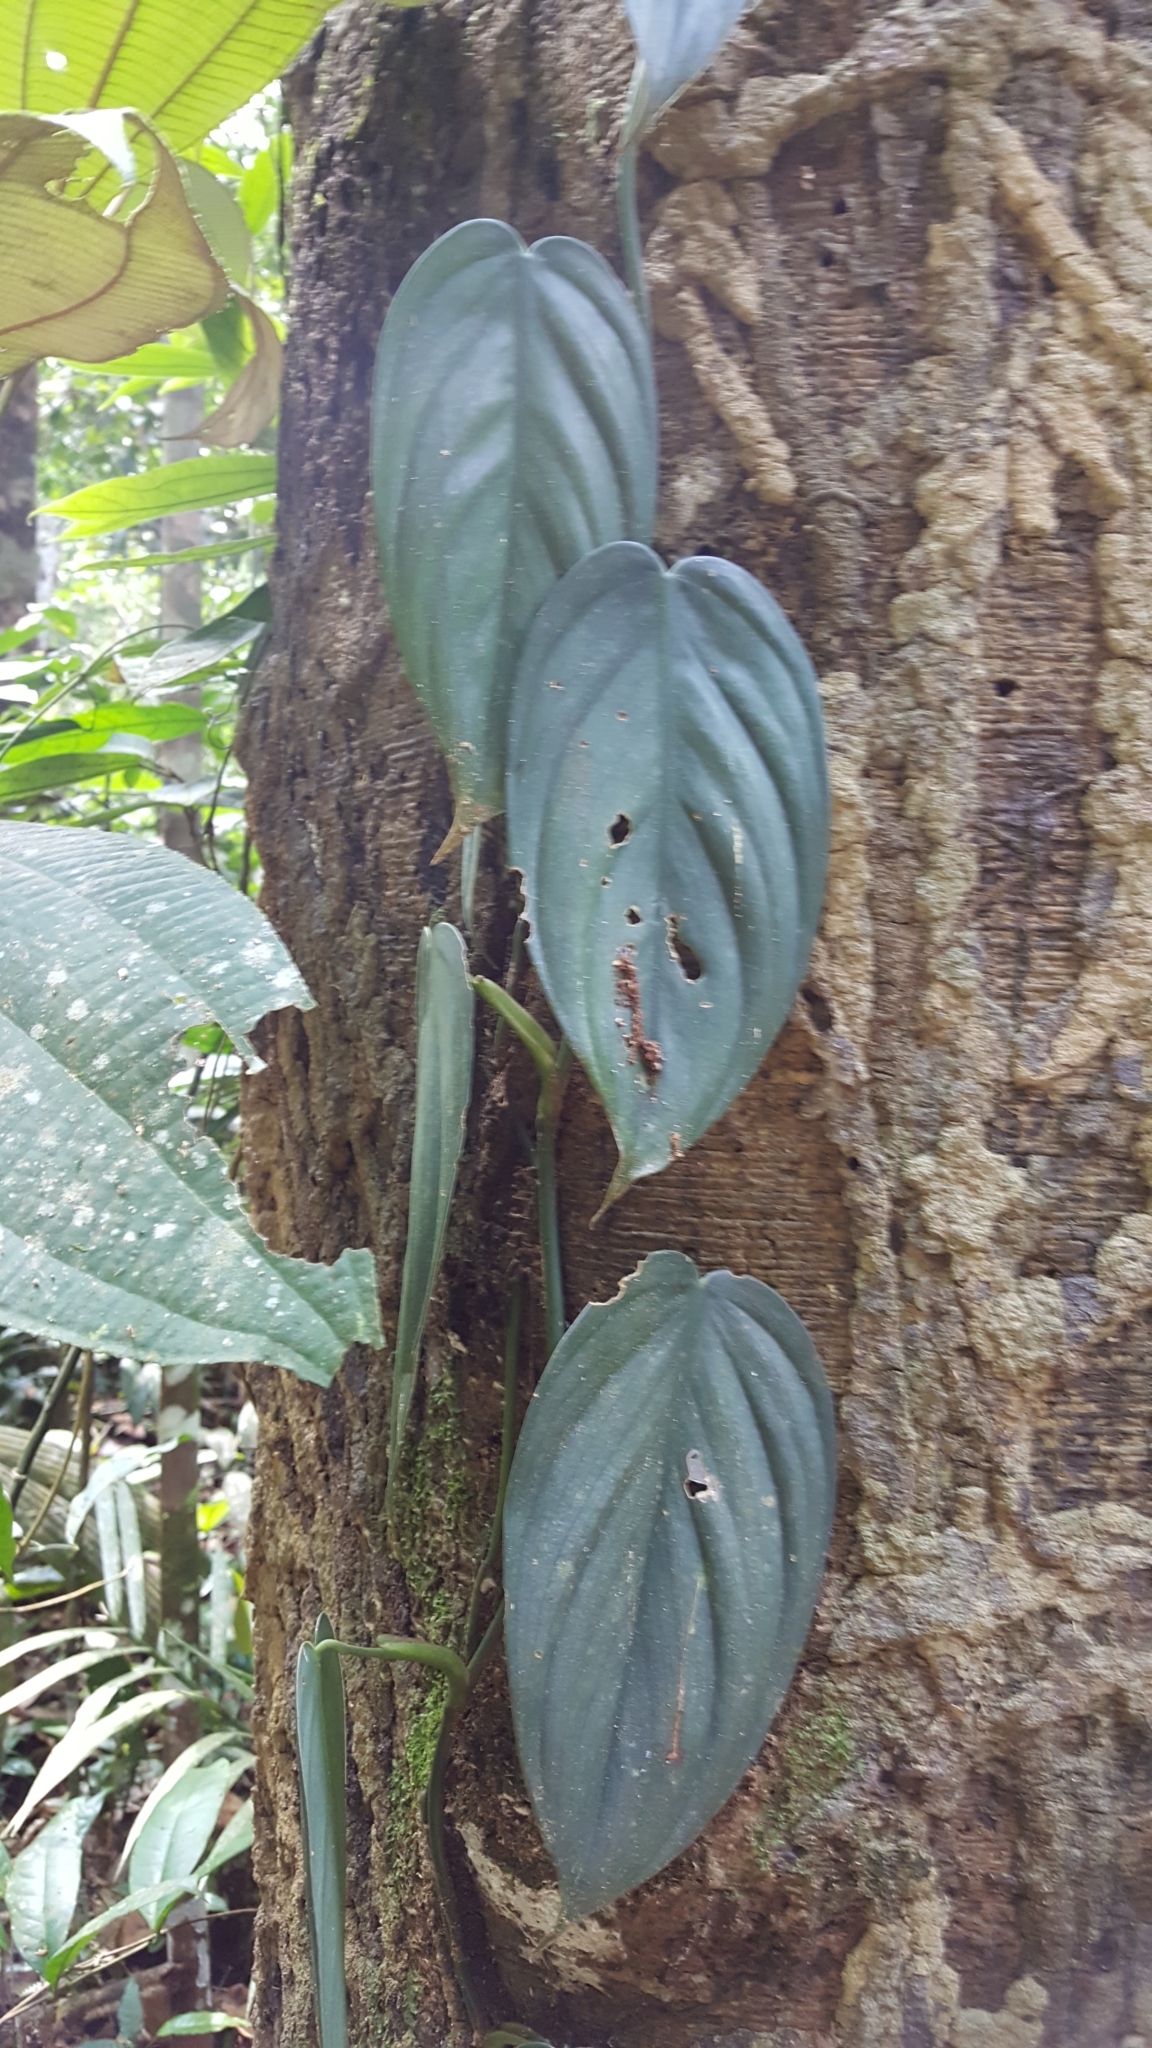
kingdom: Plantae
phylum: Tracheophyta
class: Liliopsida
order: Alismatales
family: Araceae
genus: Philodendron
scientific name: Philodendron hopkinsianum
